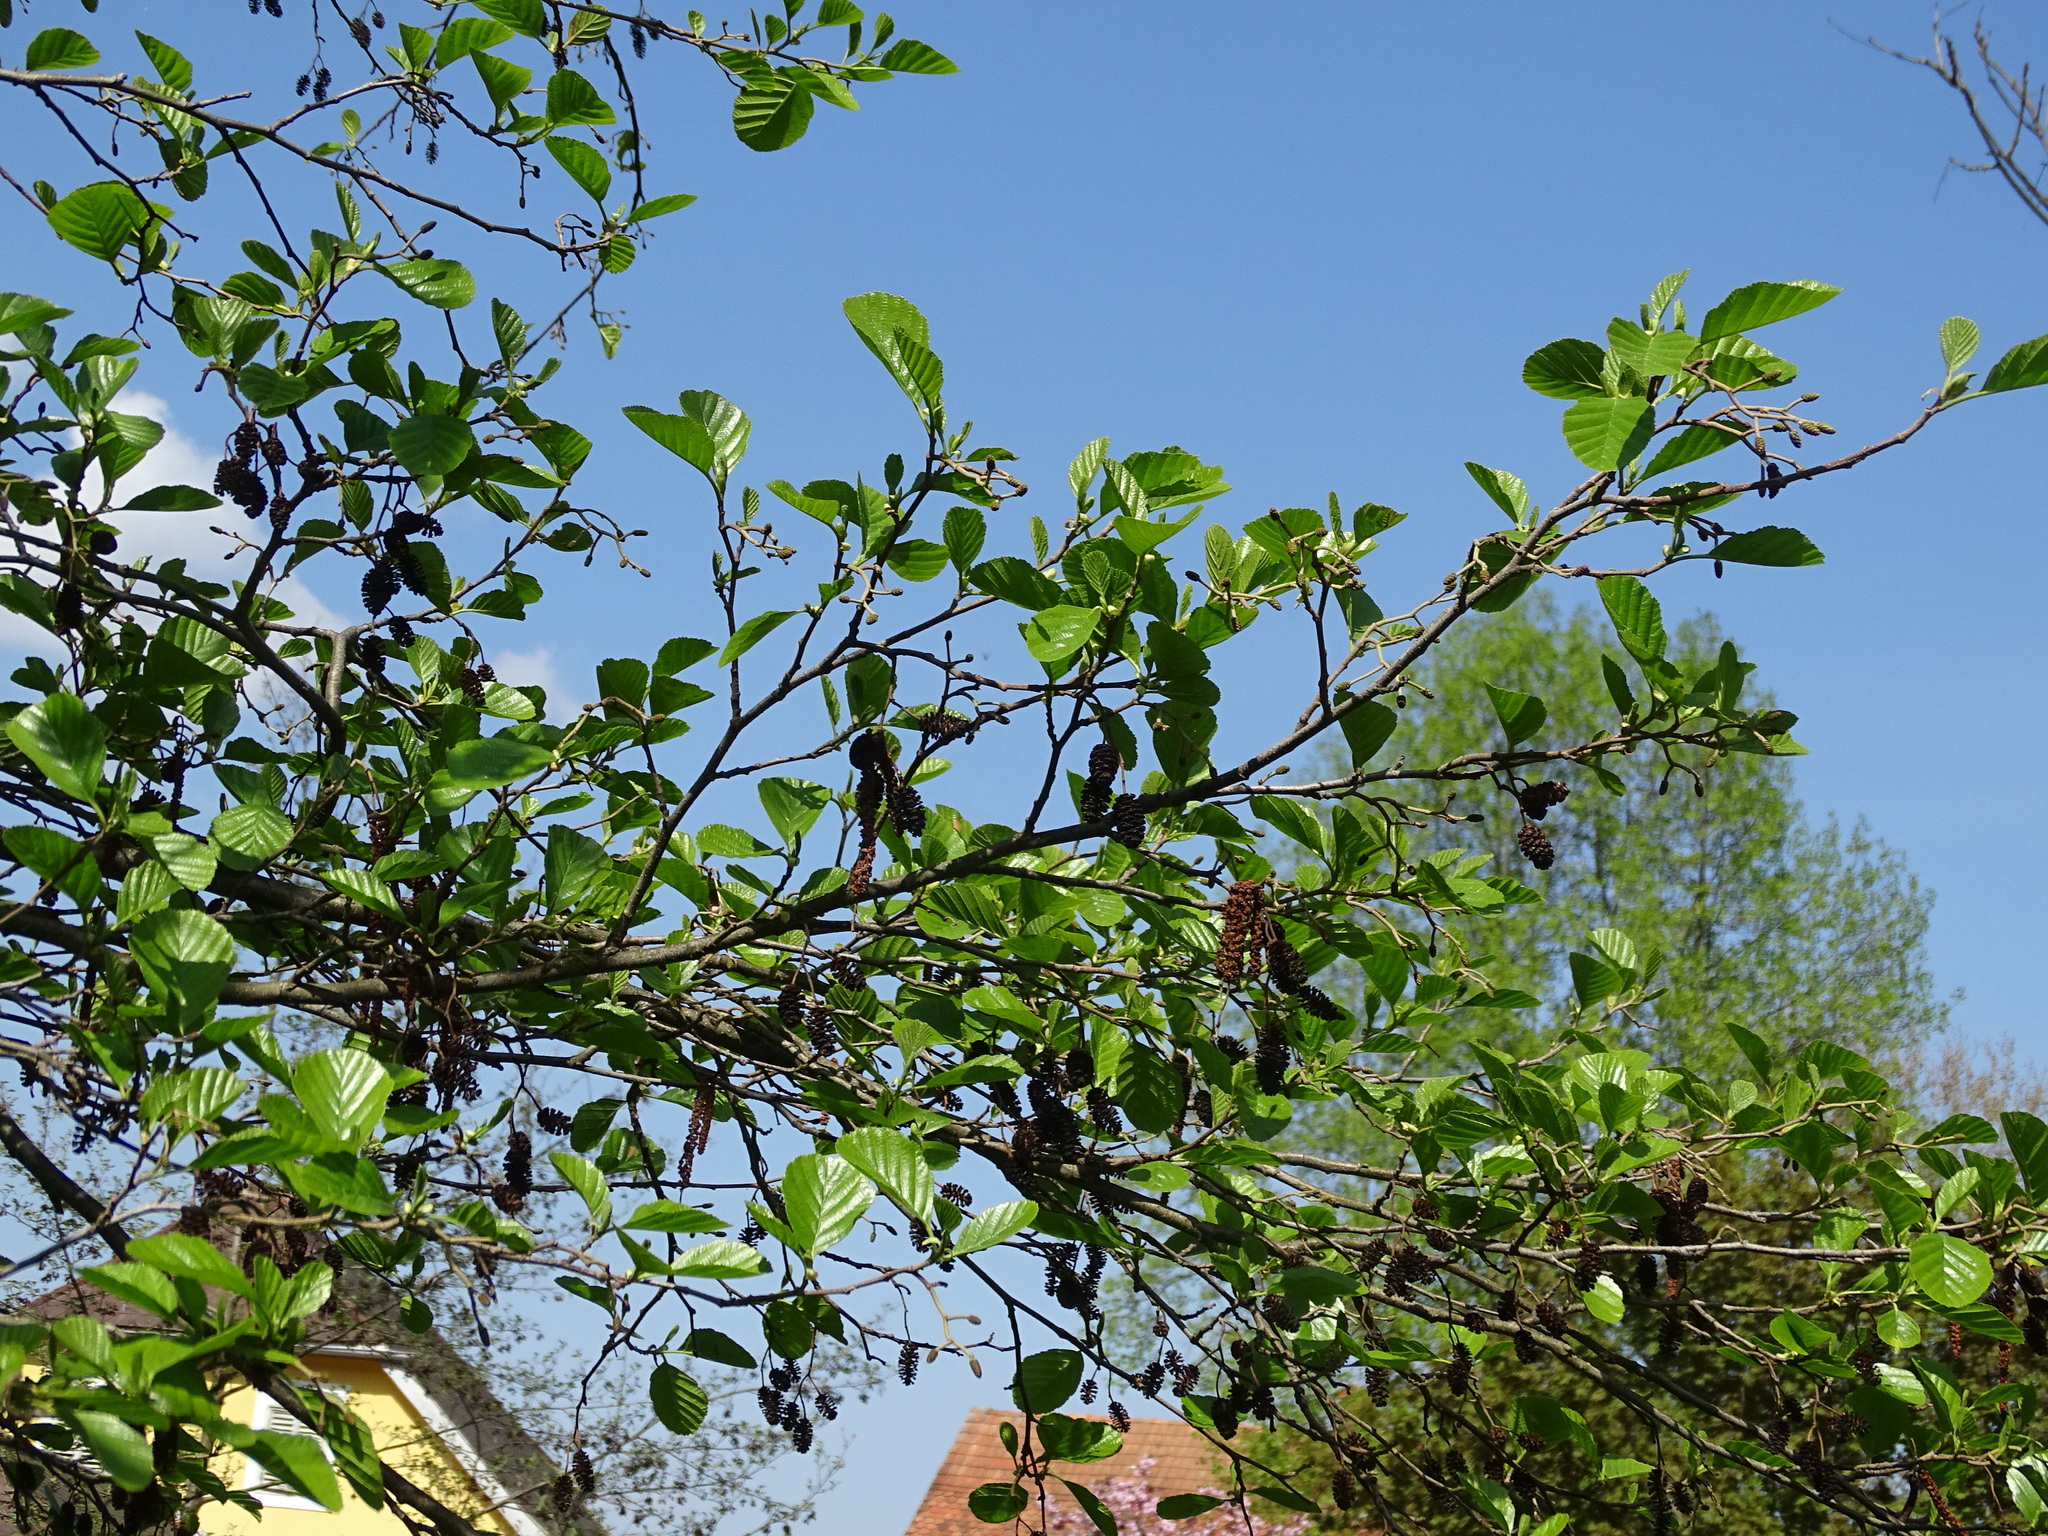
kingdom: Plantae
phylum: Tracheophyta
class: Magnoliopsida
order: Fagales
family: Betulaceae
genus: Alnus
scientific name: Alnus glutinosa
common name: Black alder
